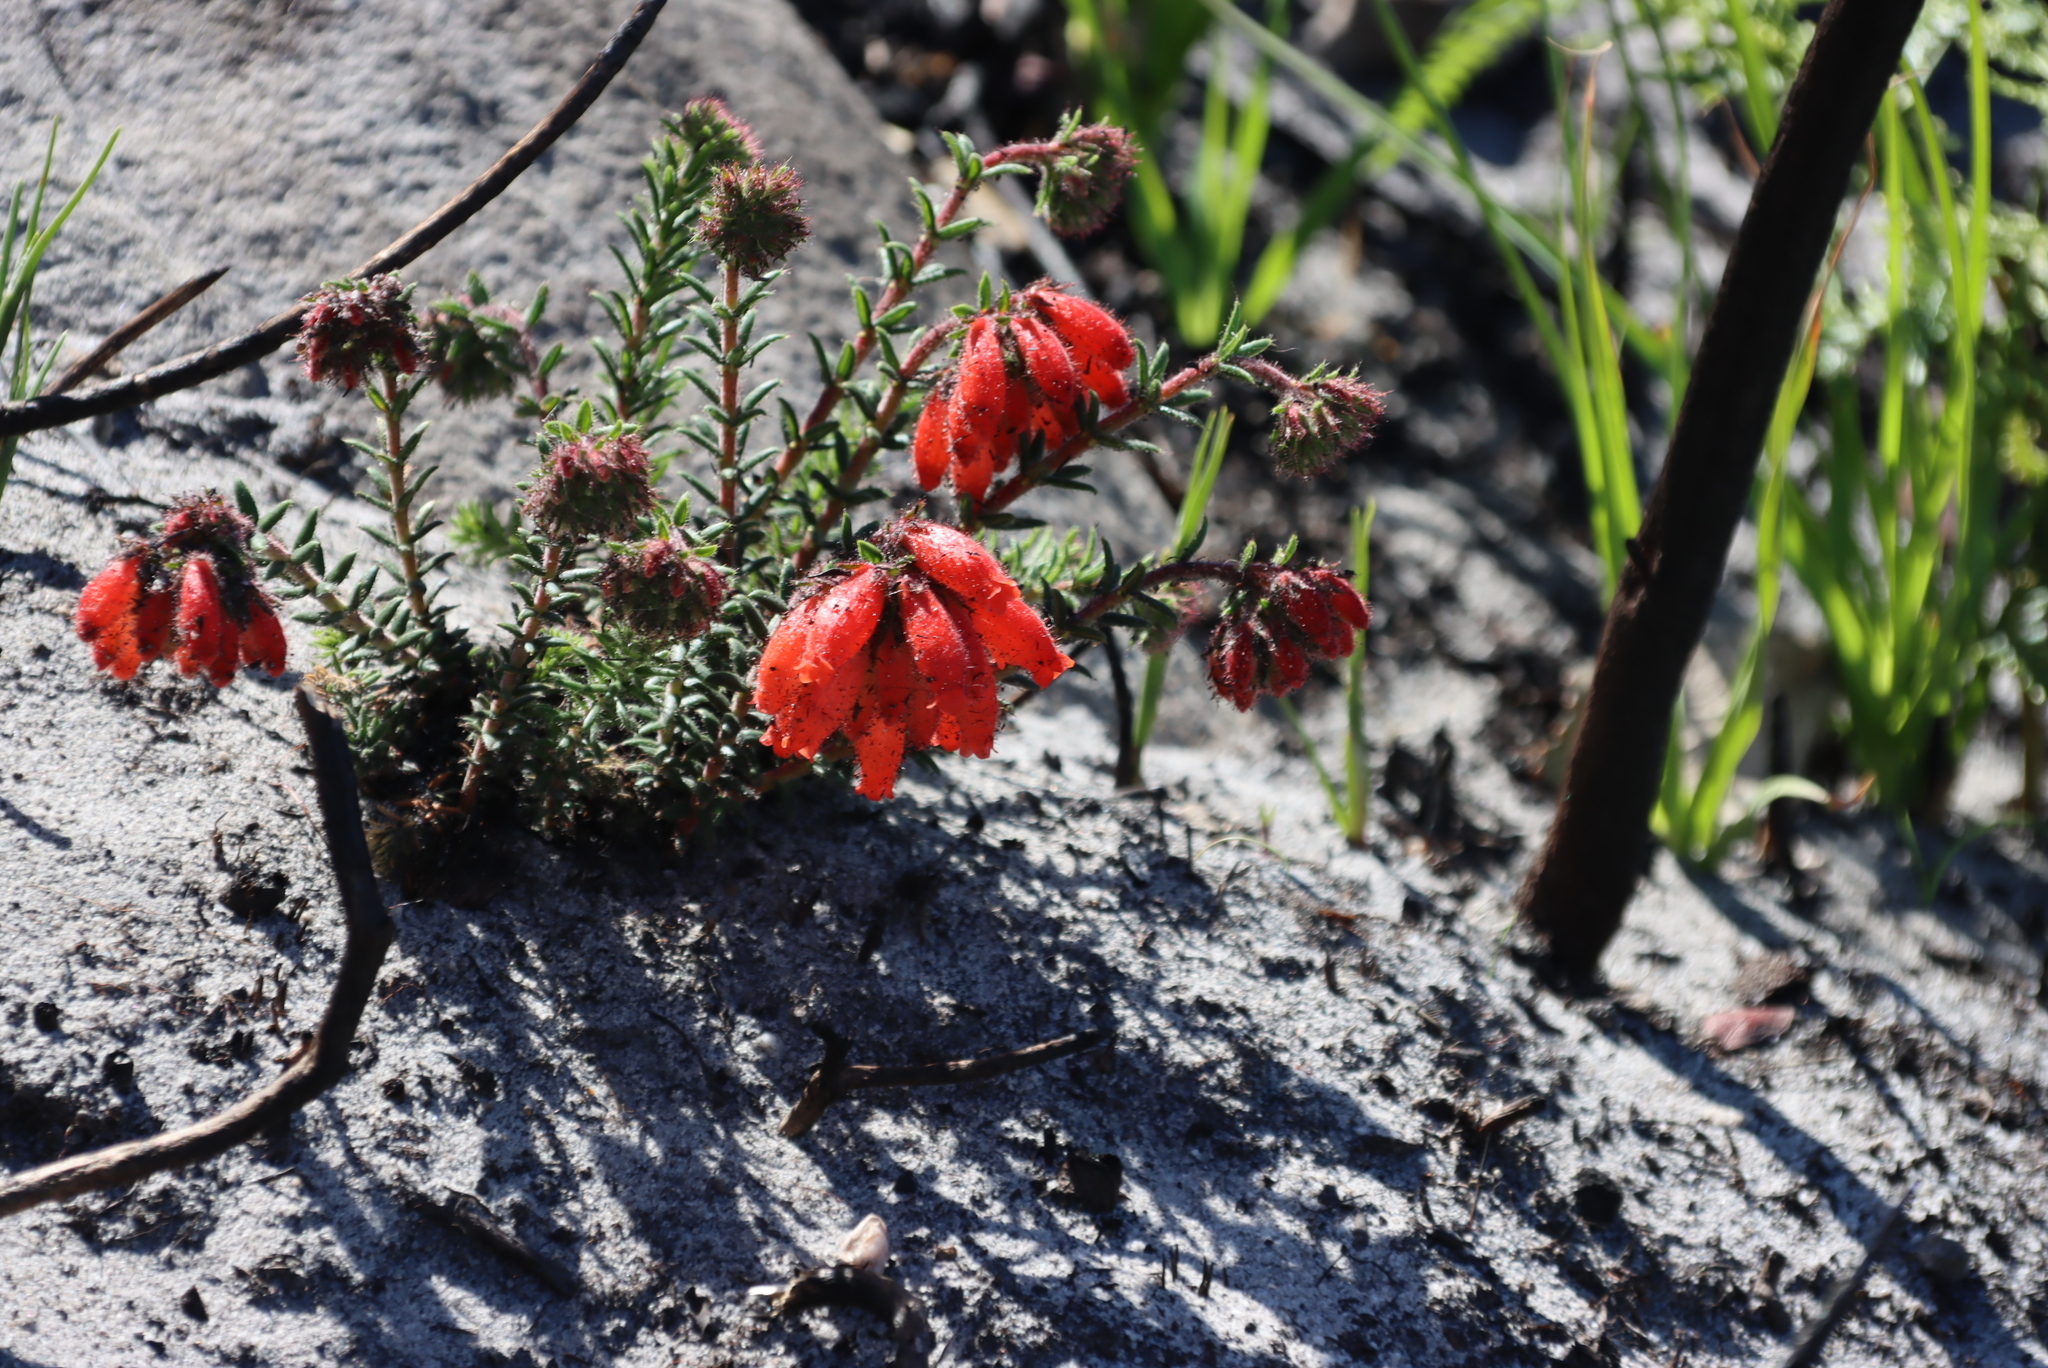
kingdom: Plantae
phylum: Tracheophyta
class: Magnoliopsida
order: Ericales
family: Ericaceae
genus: Erica
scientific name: Erica cerinthoides
